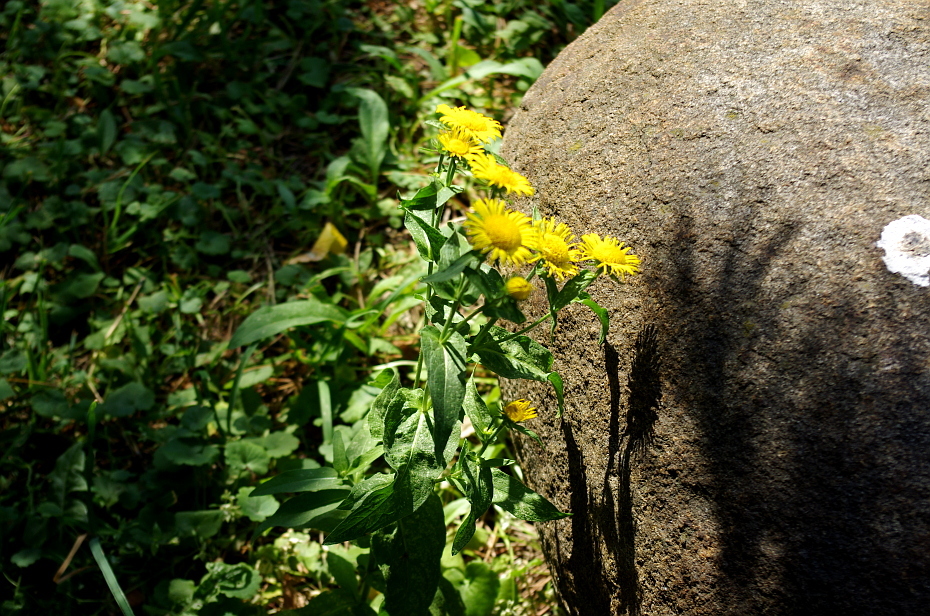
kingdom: Plantae
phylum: Tracheophyta
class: Magnoliopsida
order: Asterales
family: Asteraceae
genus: Pentanema
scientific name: Pentanema britannicum
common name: British elecampane
